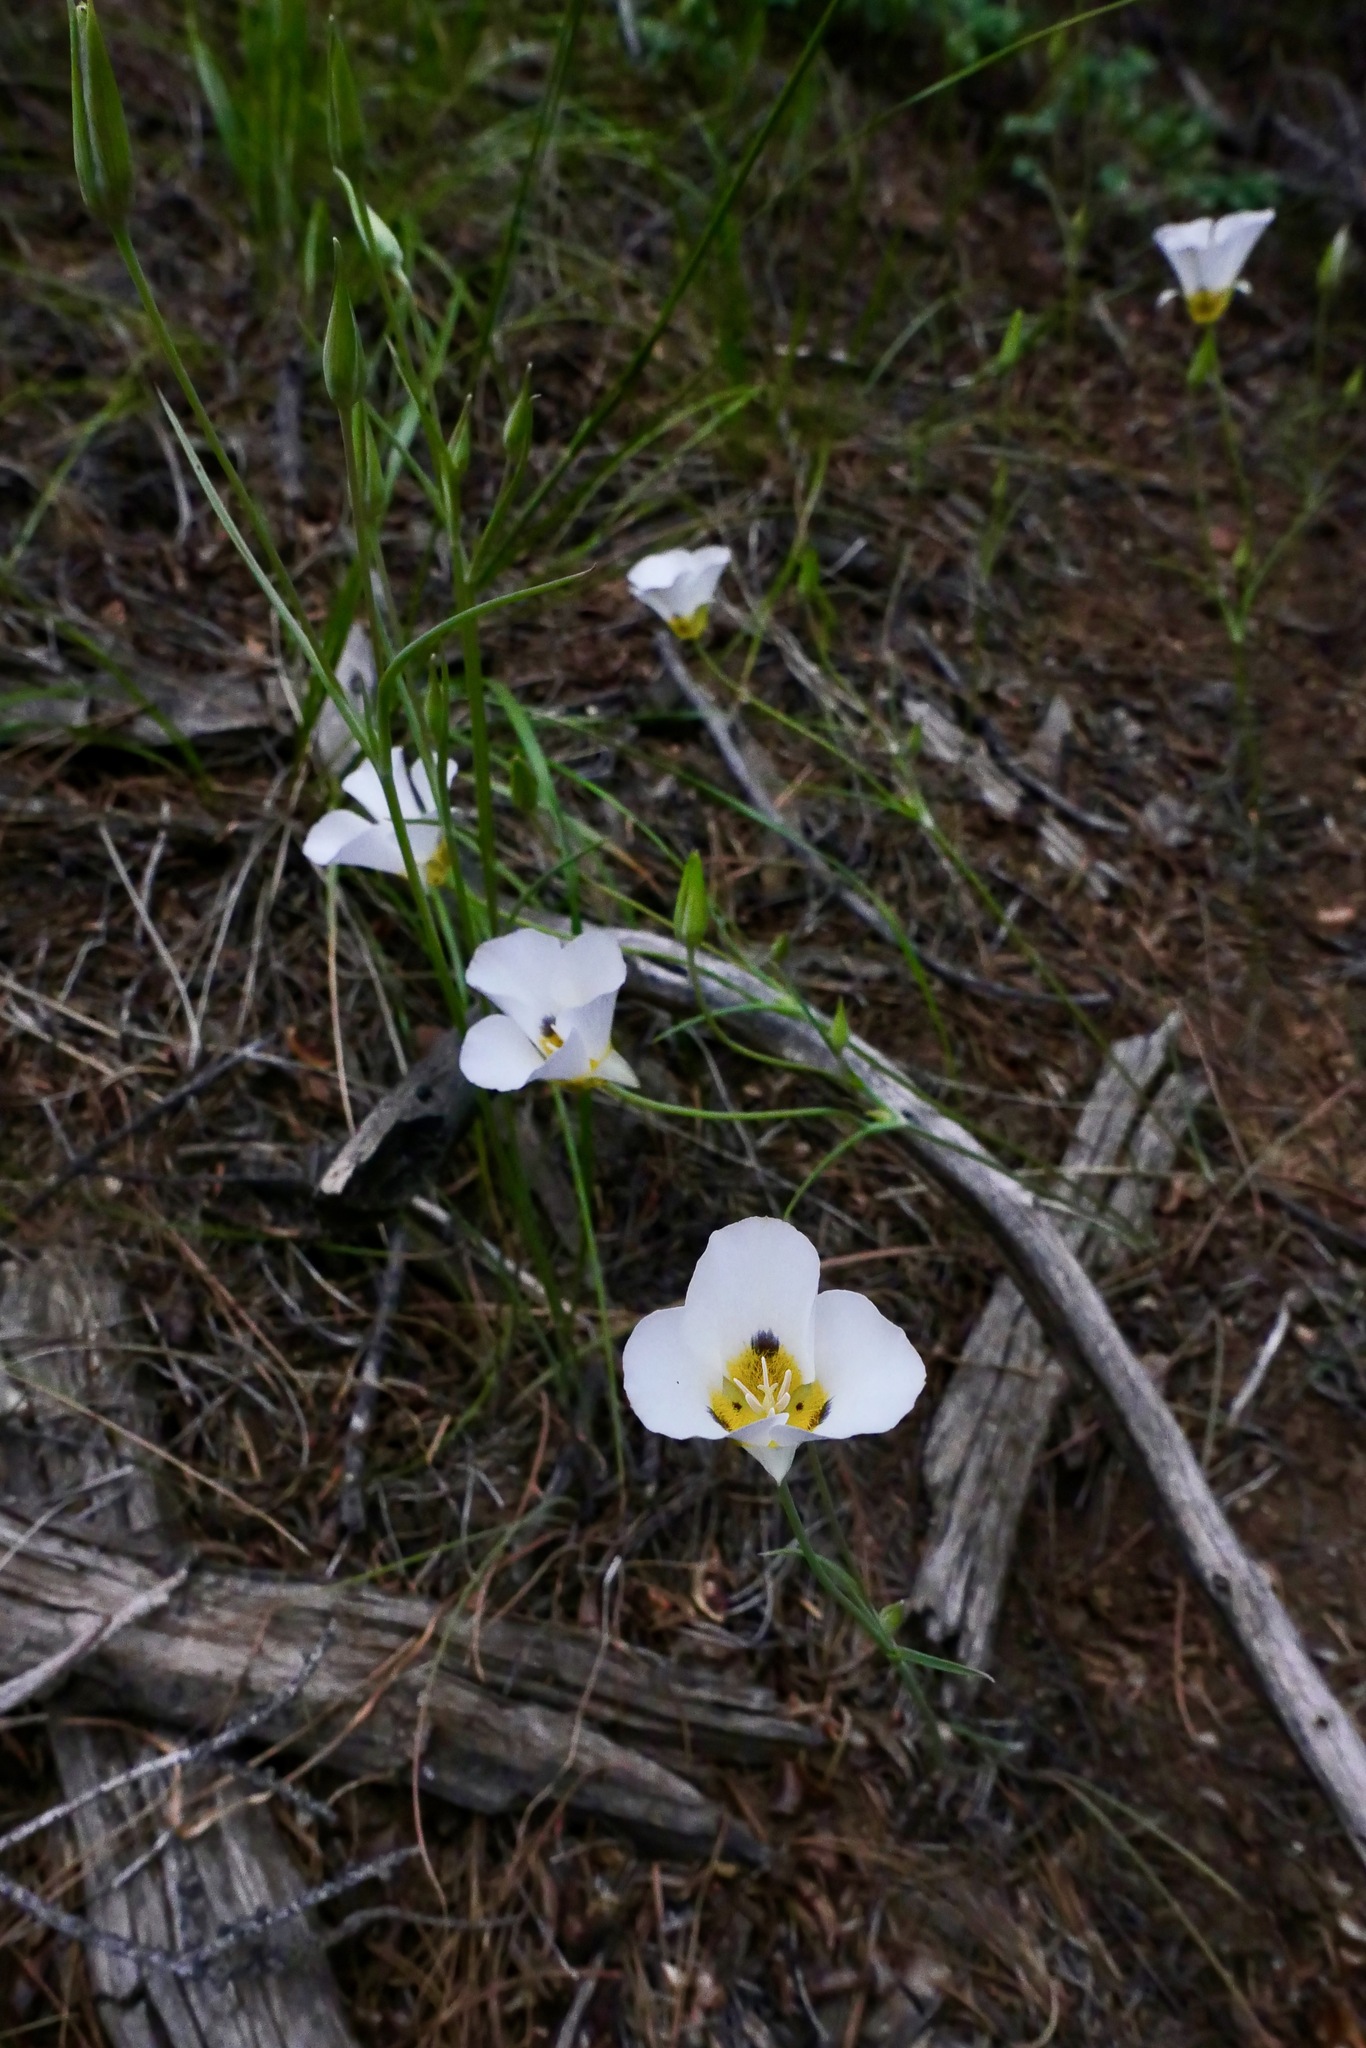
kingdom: Plantae
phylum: Tracheophyta
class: Liliopsida
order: Liliales
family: Liliaceae
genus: Calochortus
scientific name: Calochortus leichtlinii
